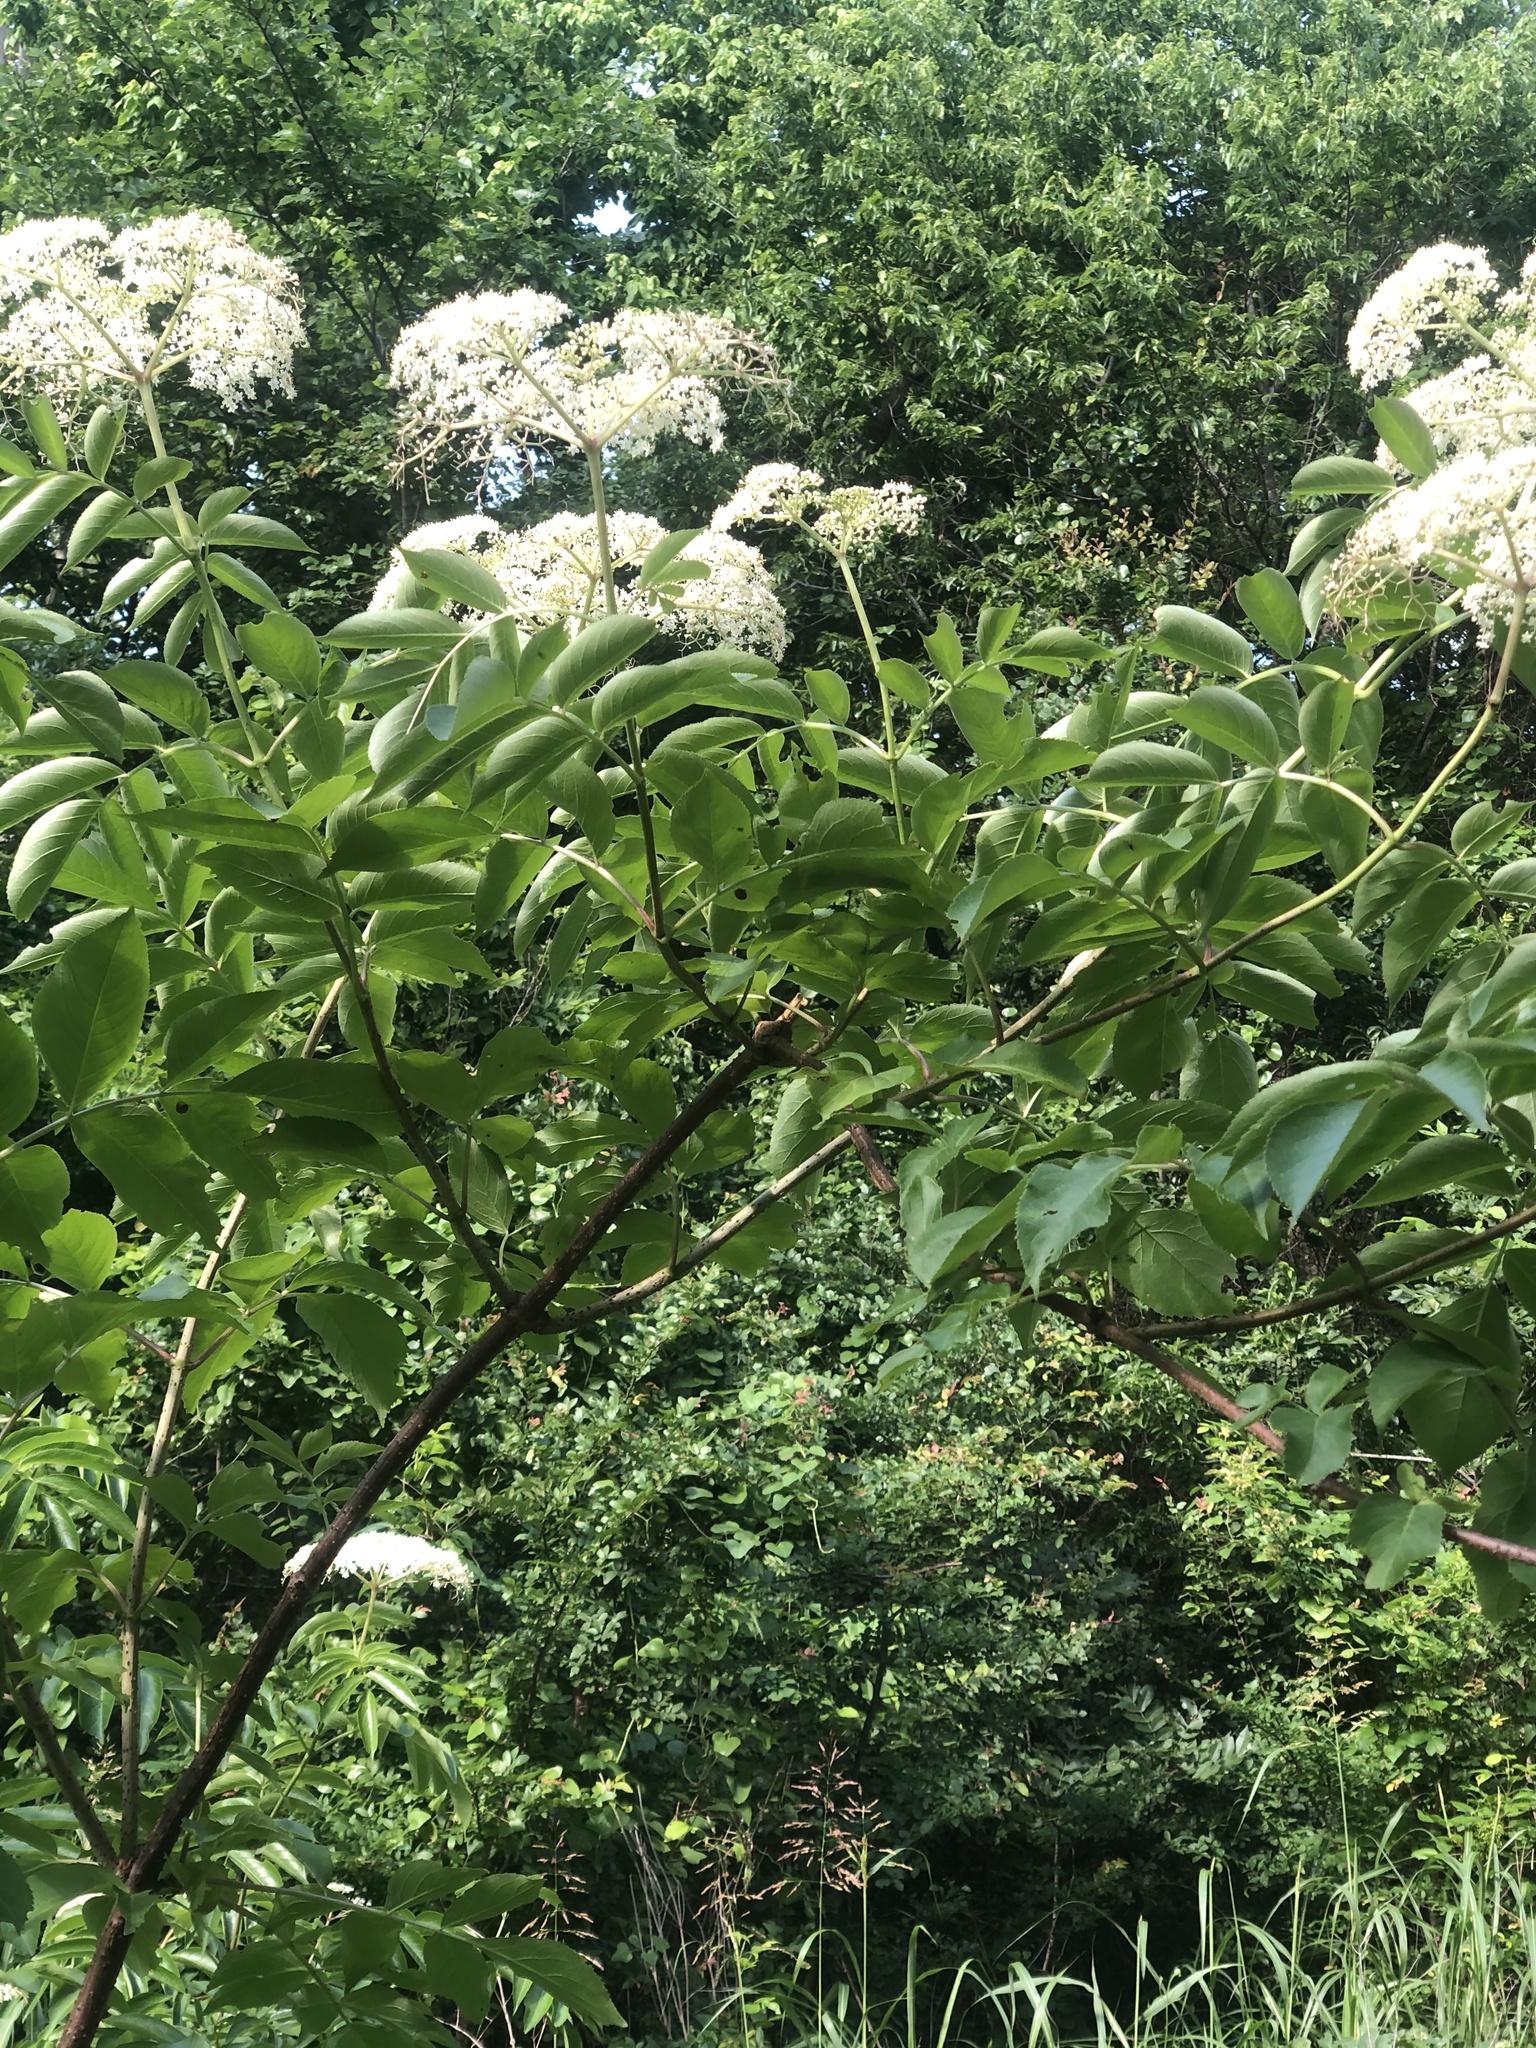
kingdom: Plantae
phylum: Tracheophyta
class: Magnoliopsida
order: Dipsacales
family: Viburnaceae
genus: Sambucus
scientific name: Sambucus canadensis
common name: American elder
